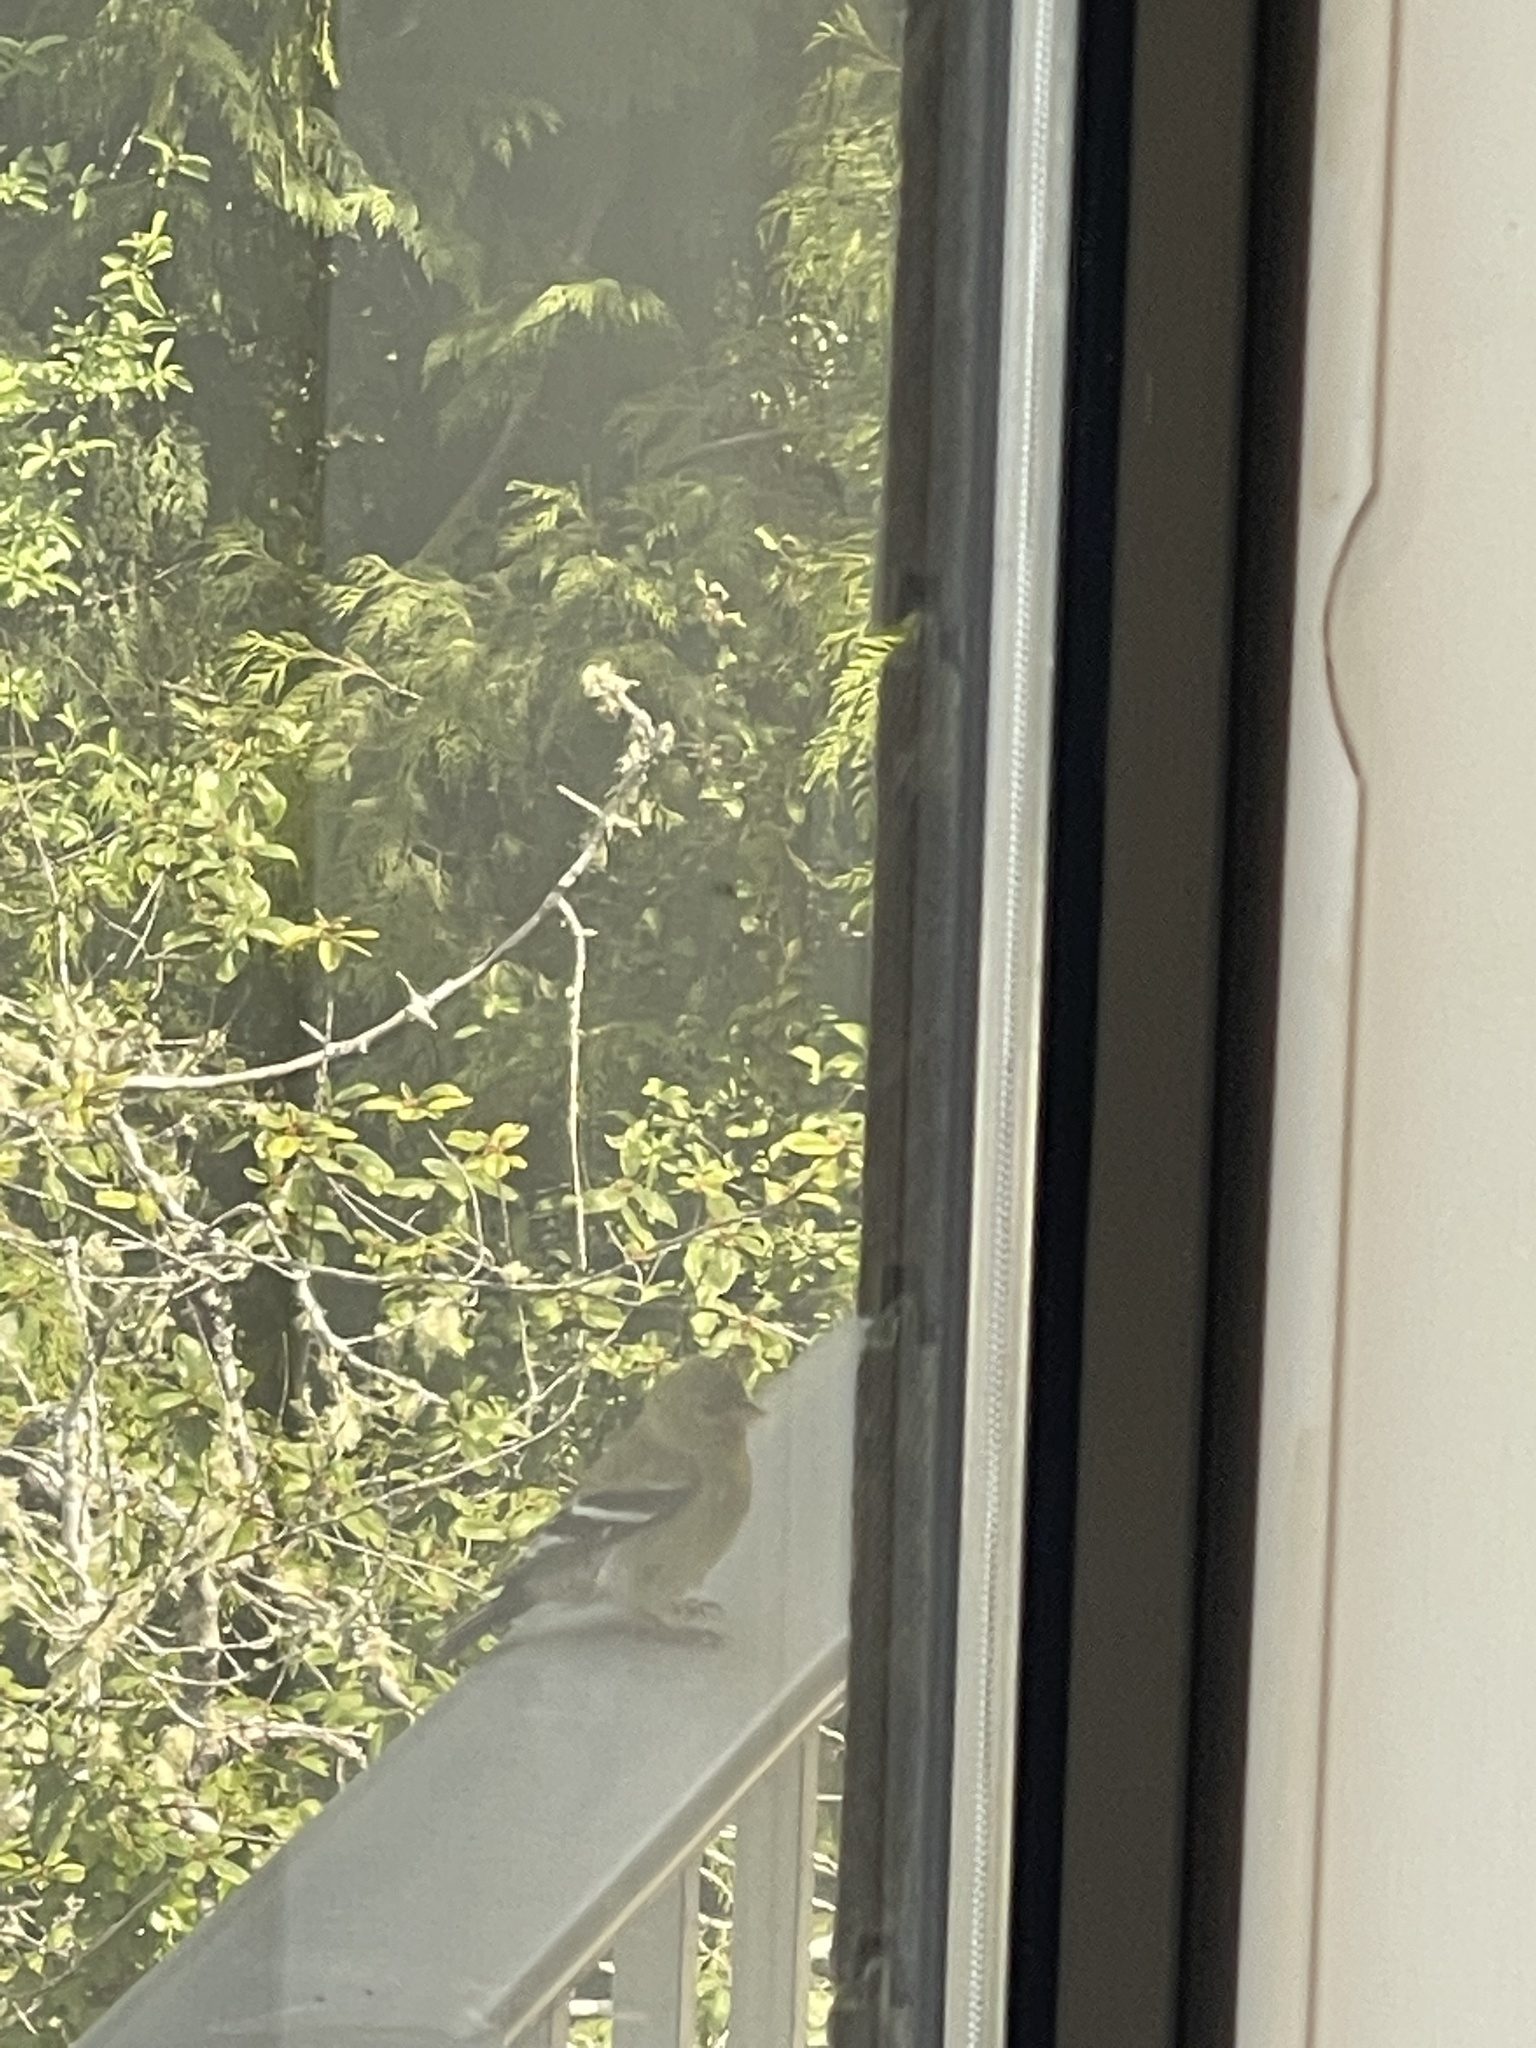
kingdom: Animalia
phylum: Chordata
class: Aves
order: Passeriformes
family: Fringillidae
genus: Spinus
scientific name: Spinus tristis
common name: American goldfinch
